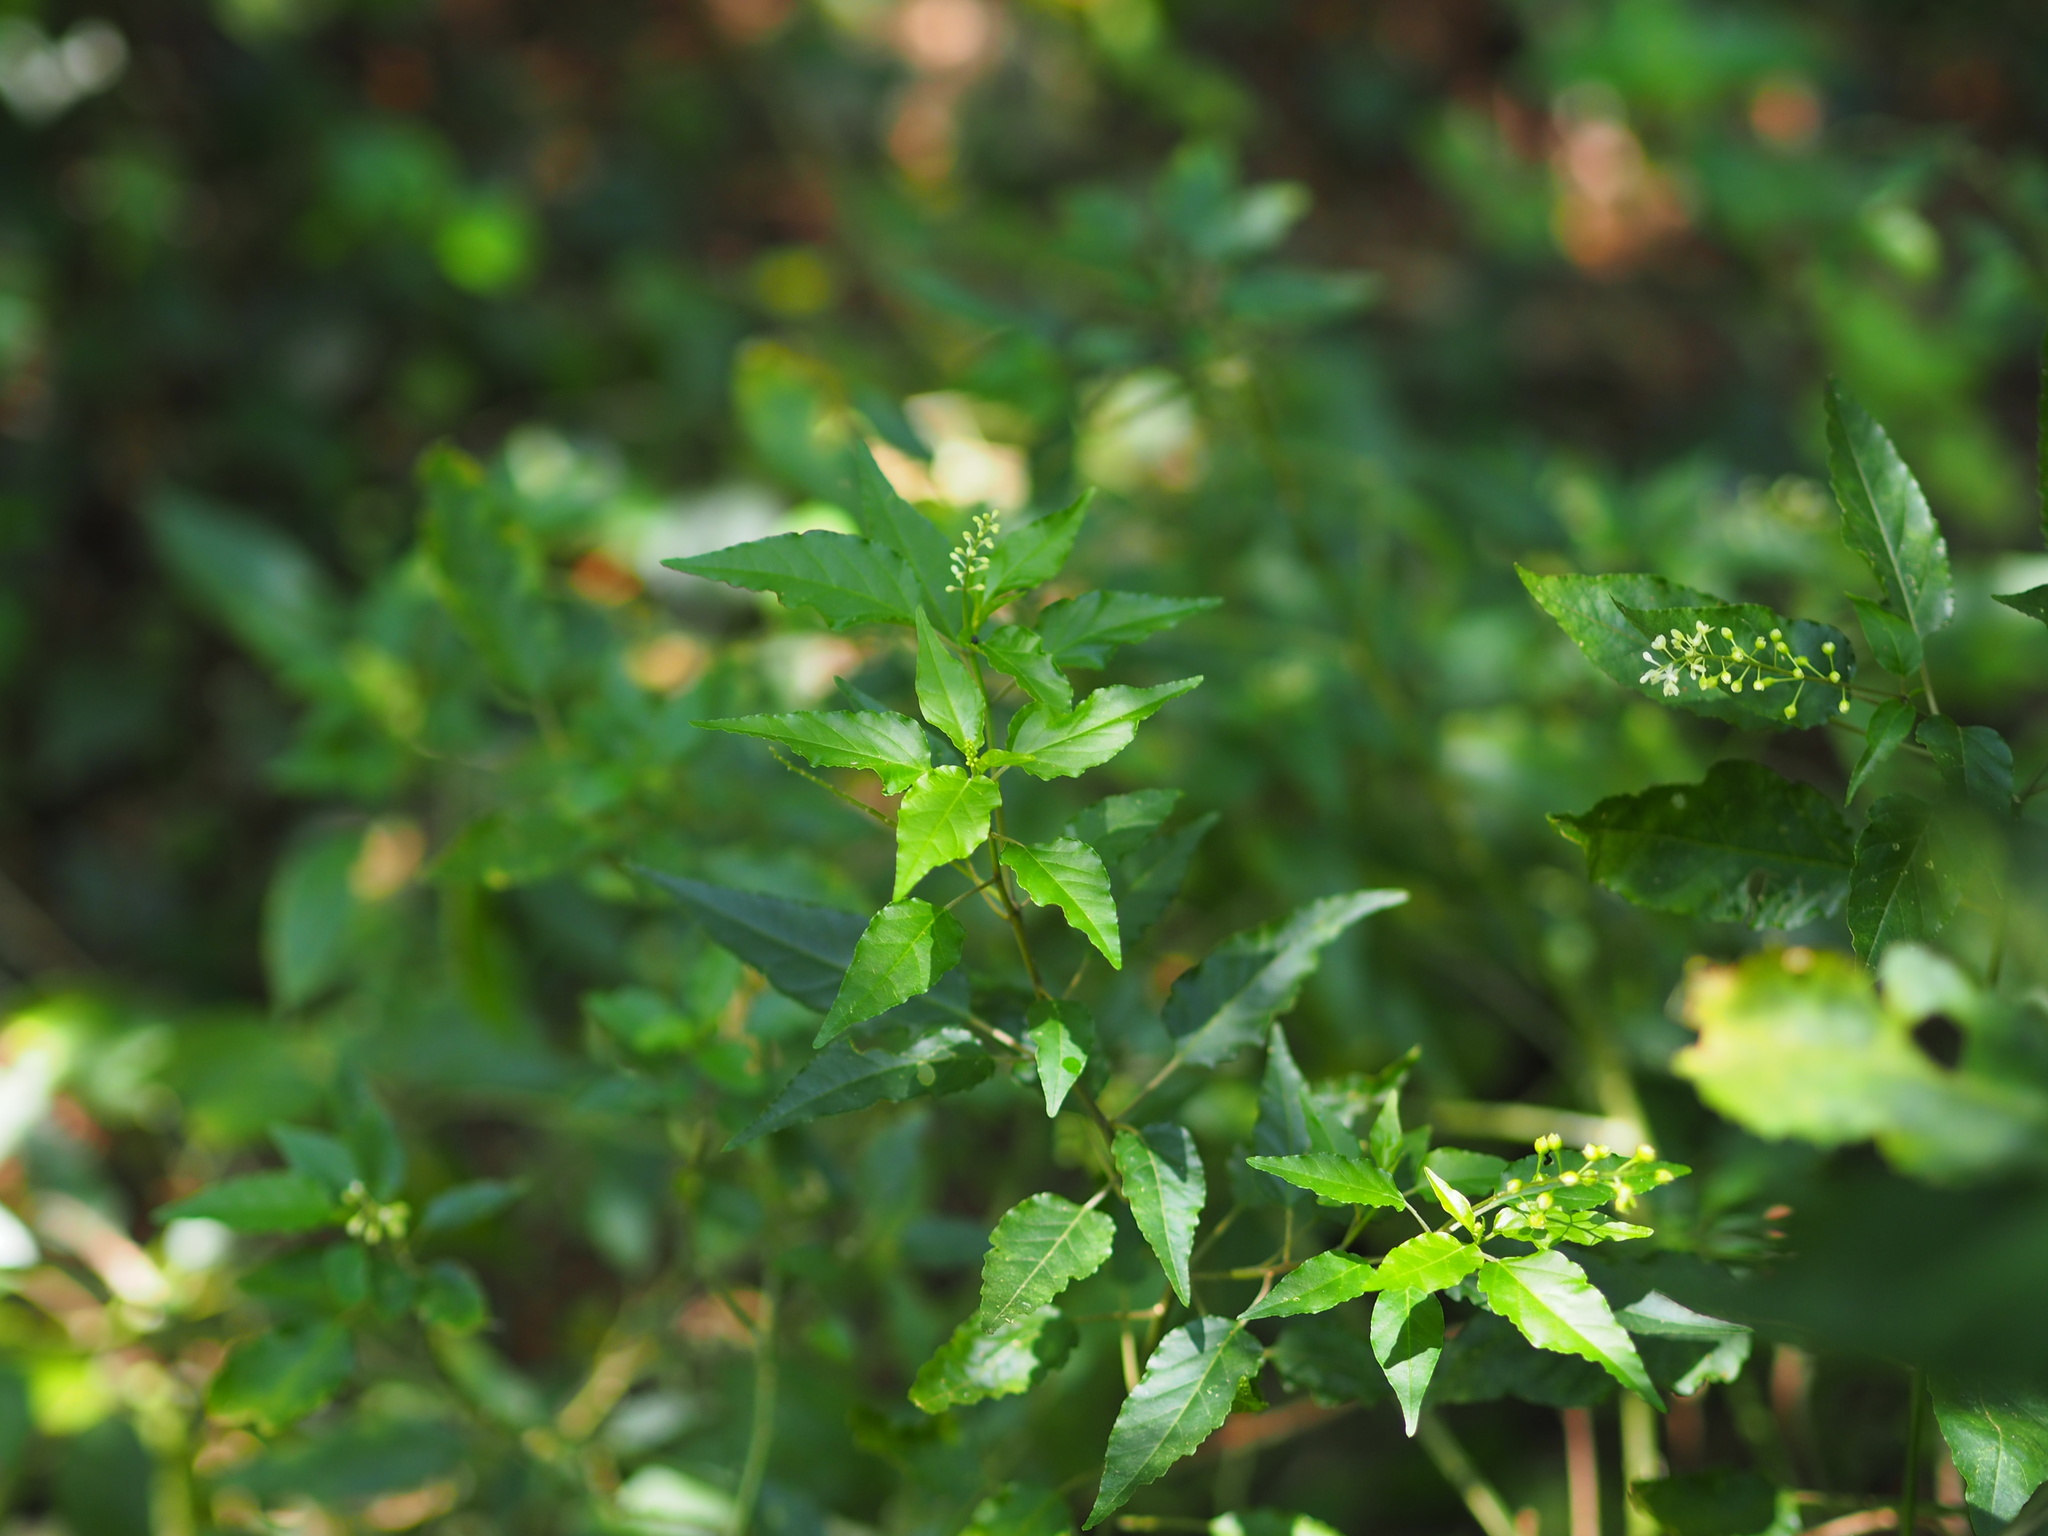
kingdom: Plantae
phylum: Tracheophyta
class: Magnoliopsida
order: Caryophyllales
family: Phytolaccaceae
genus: Rivina
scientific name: Rivina humilis
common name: Rougeplant
